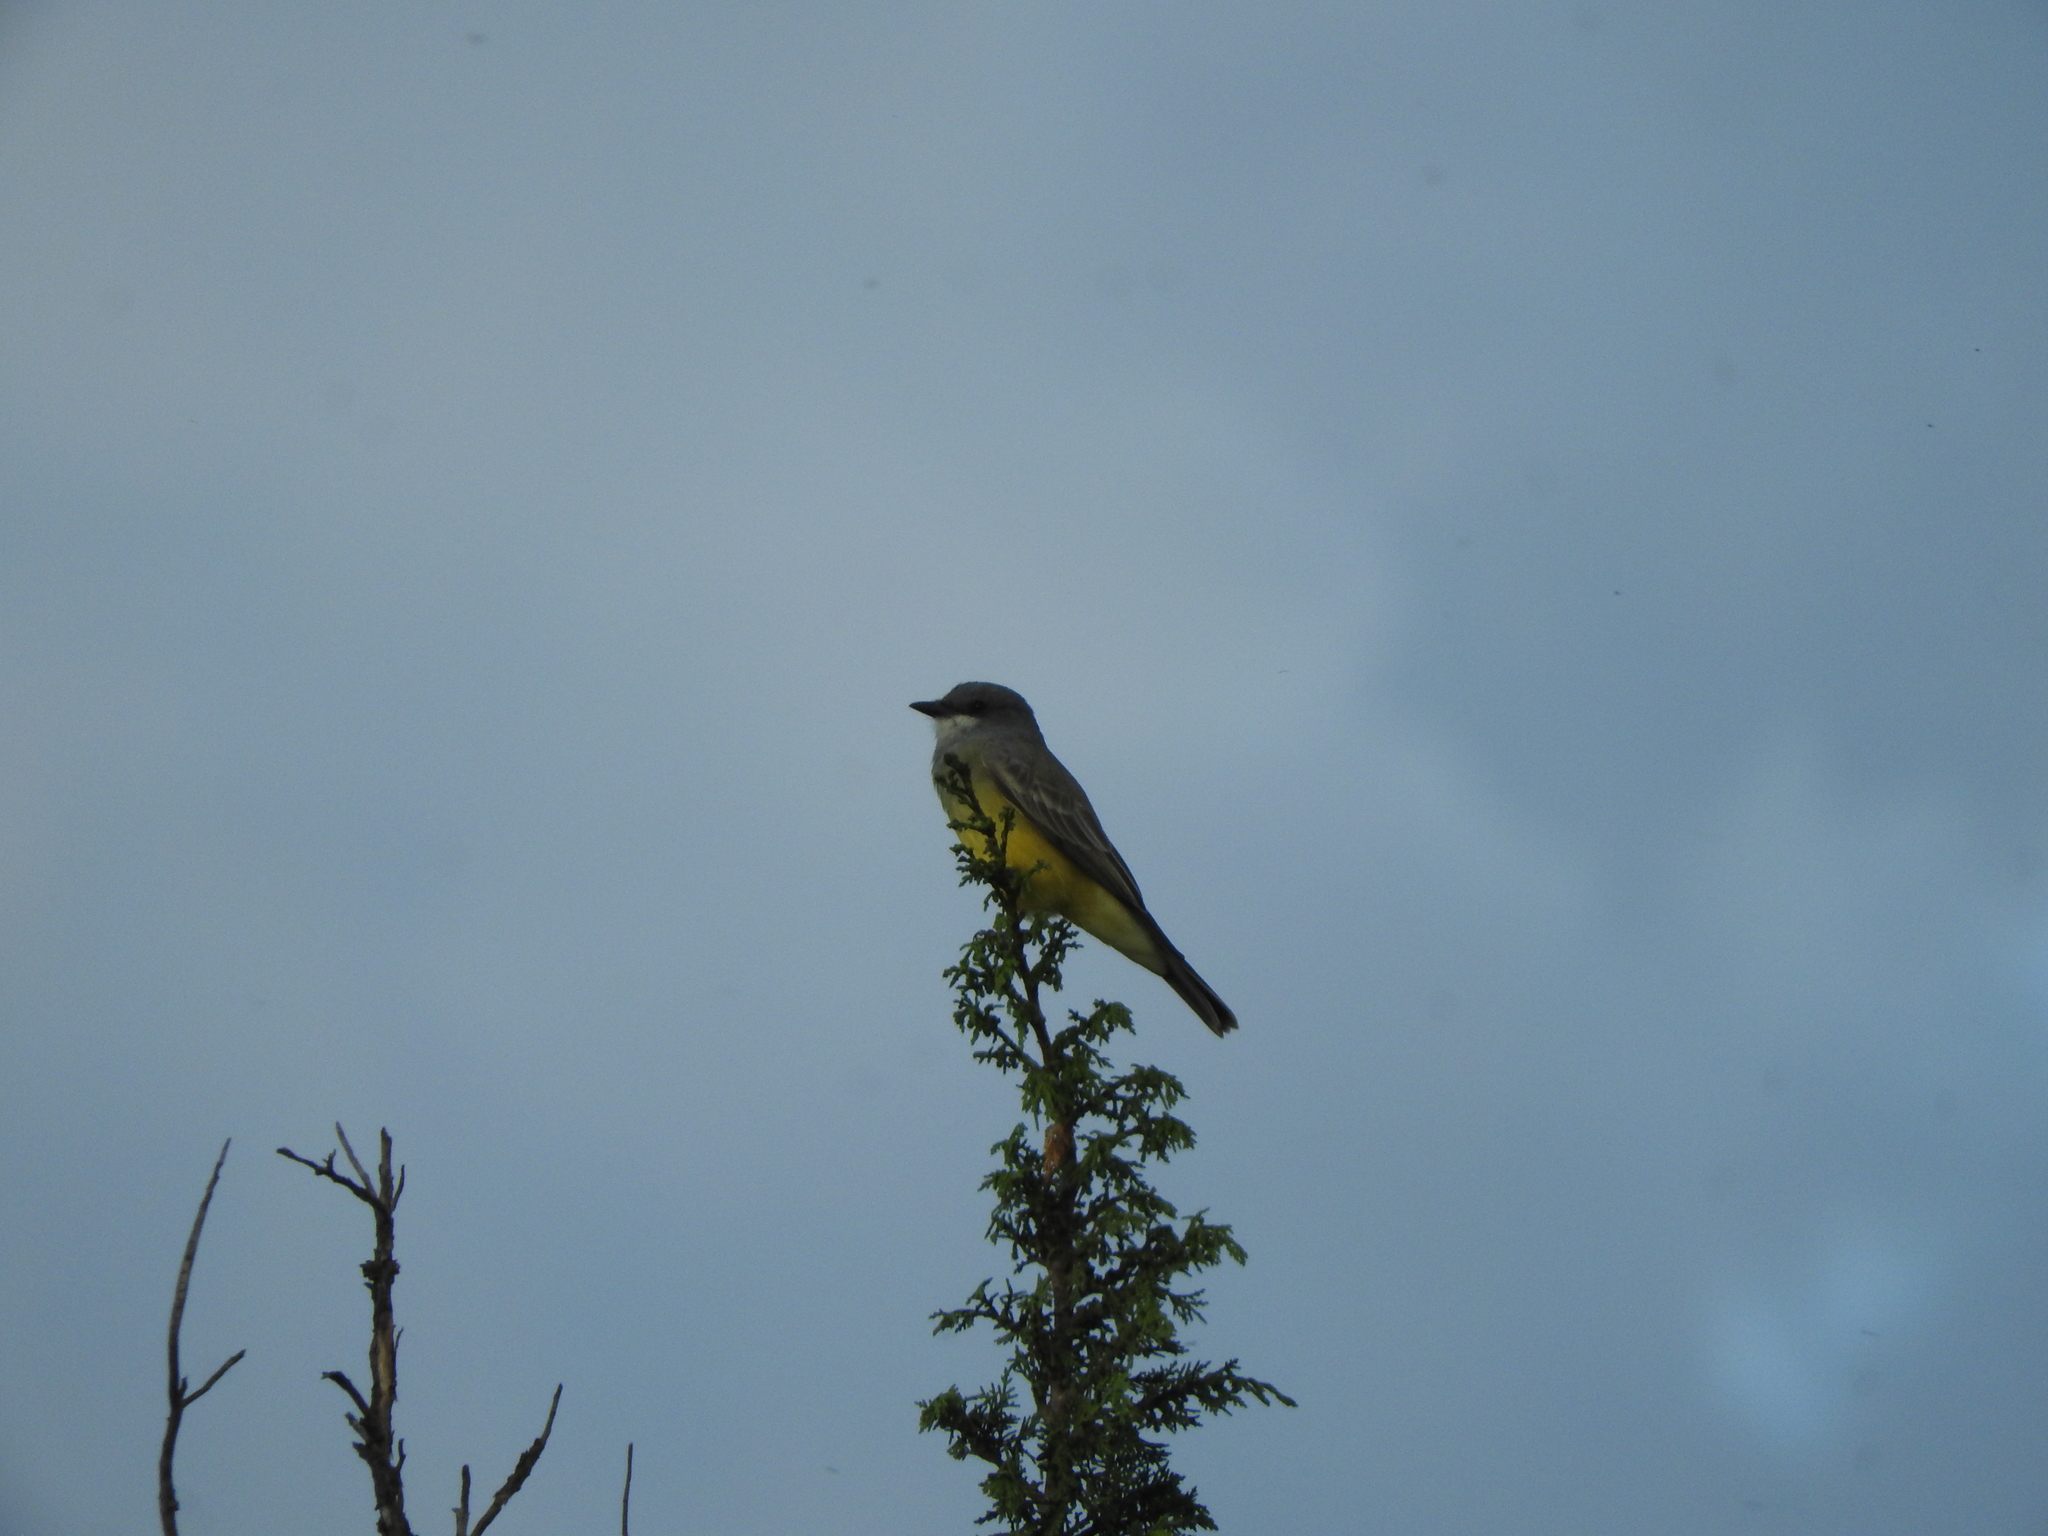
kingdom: Animalia
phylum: Chordata
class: Aves
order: Passeriformes
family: Tyrannidae
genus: Tyrannus
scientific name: Tyrannus vociferans
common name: Cassin's kingbird
